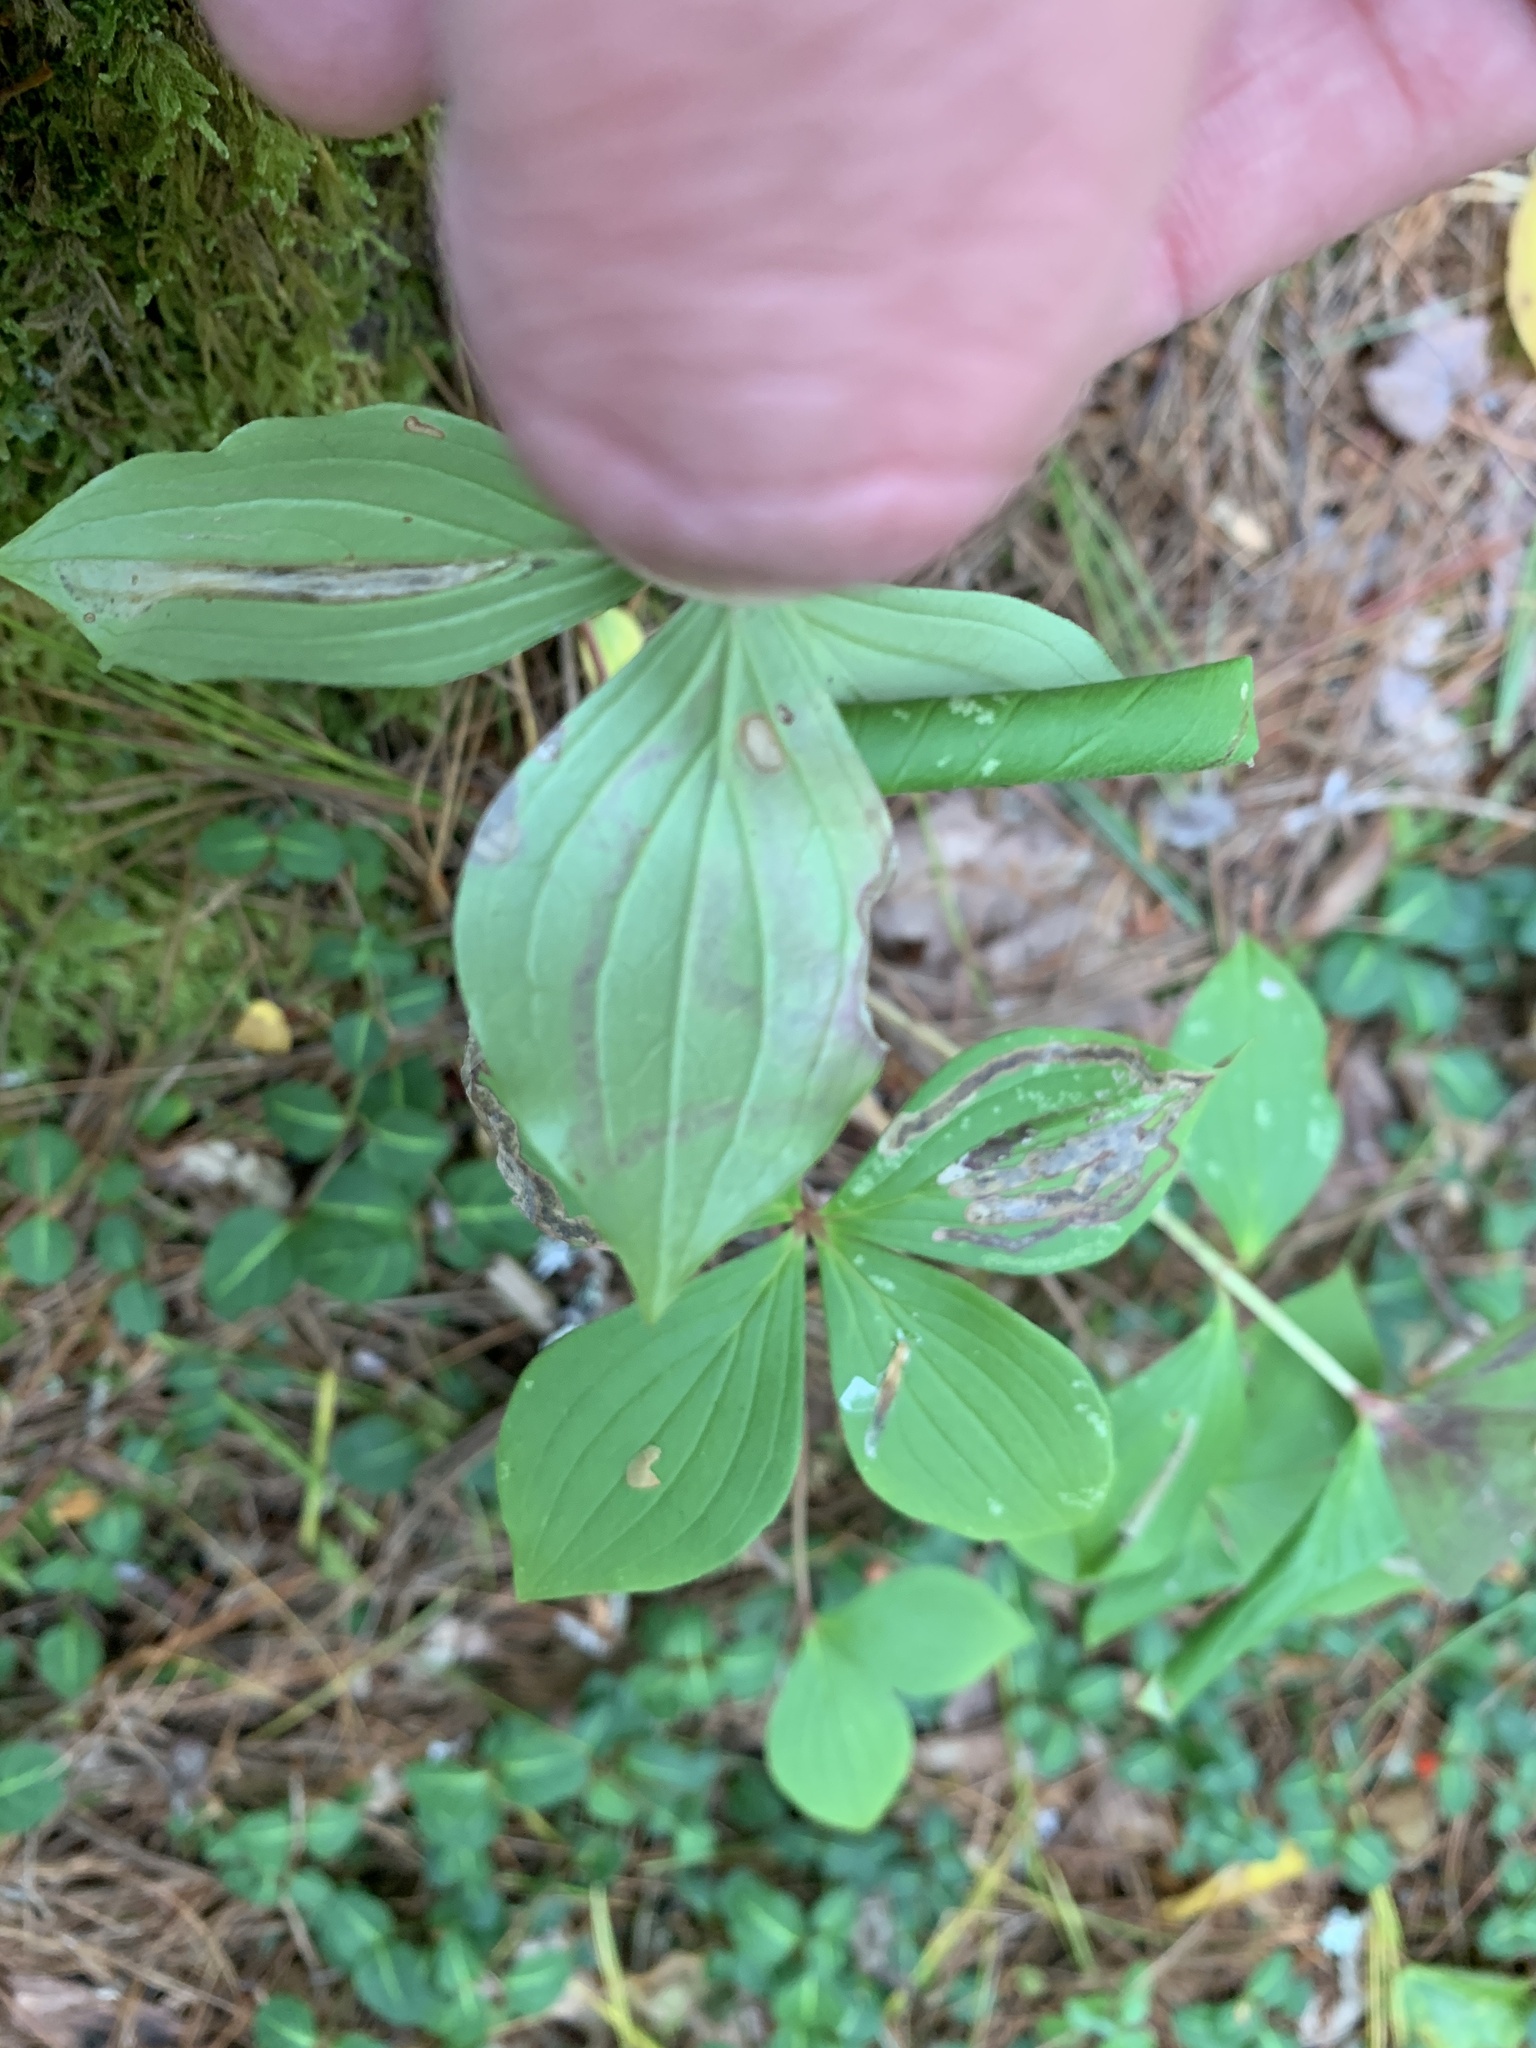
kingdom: Animalia
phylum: Arthropoda
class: Insecta
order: Diptera
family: Agromyzidae
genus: Phytomyza
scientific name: Phytomyza agromyzina
